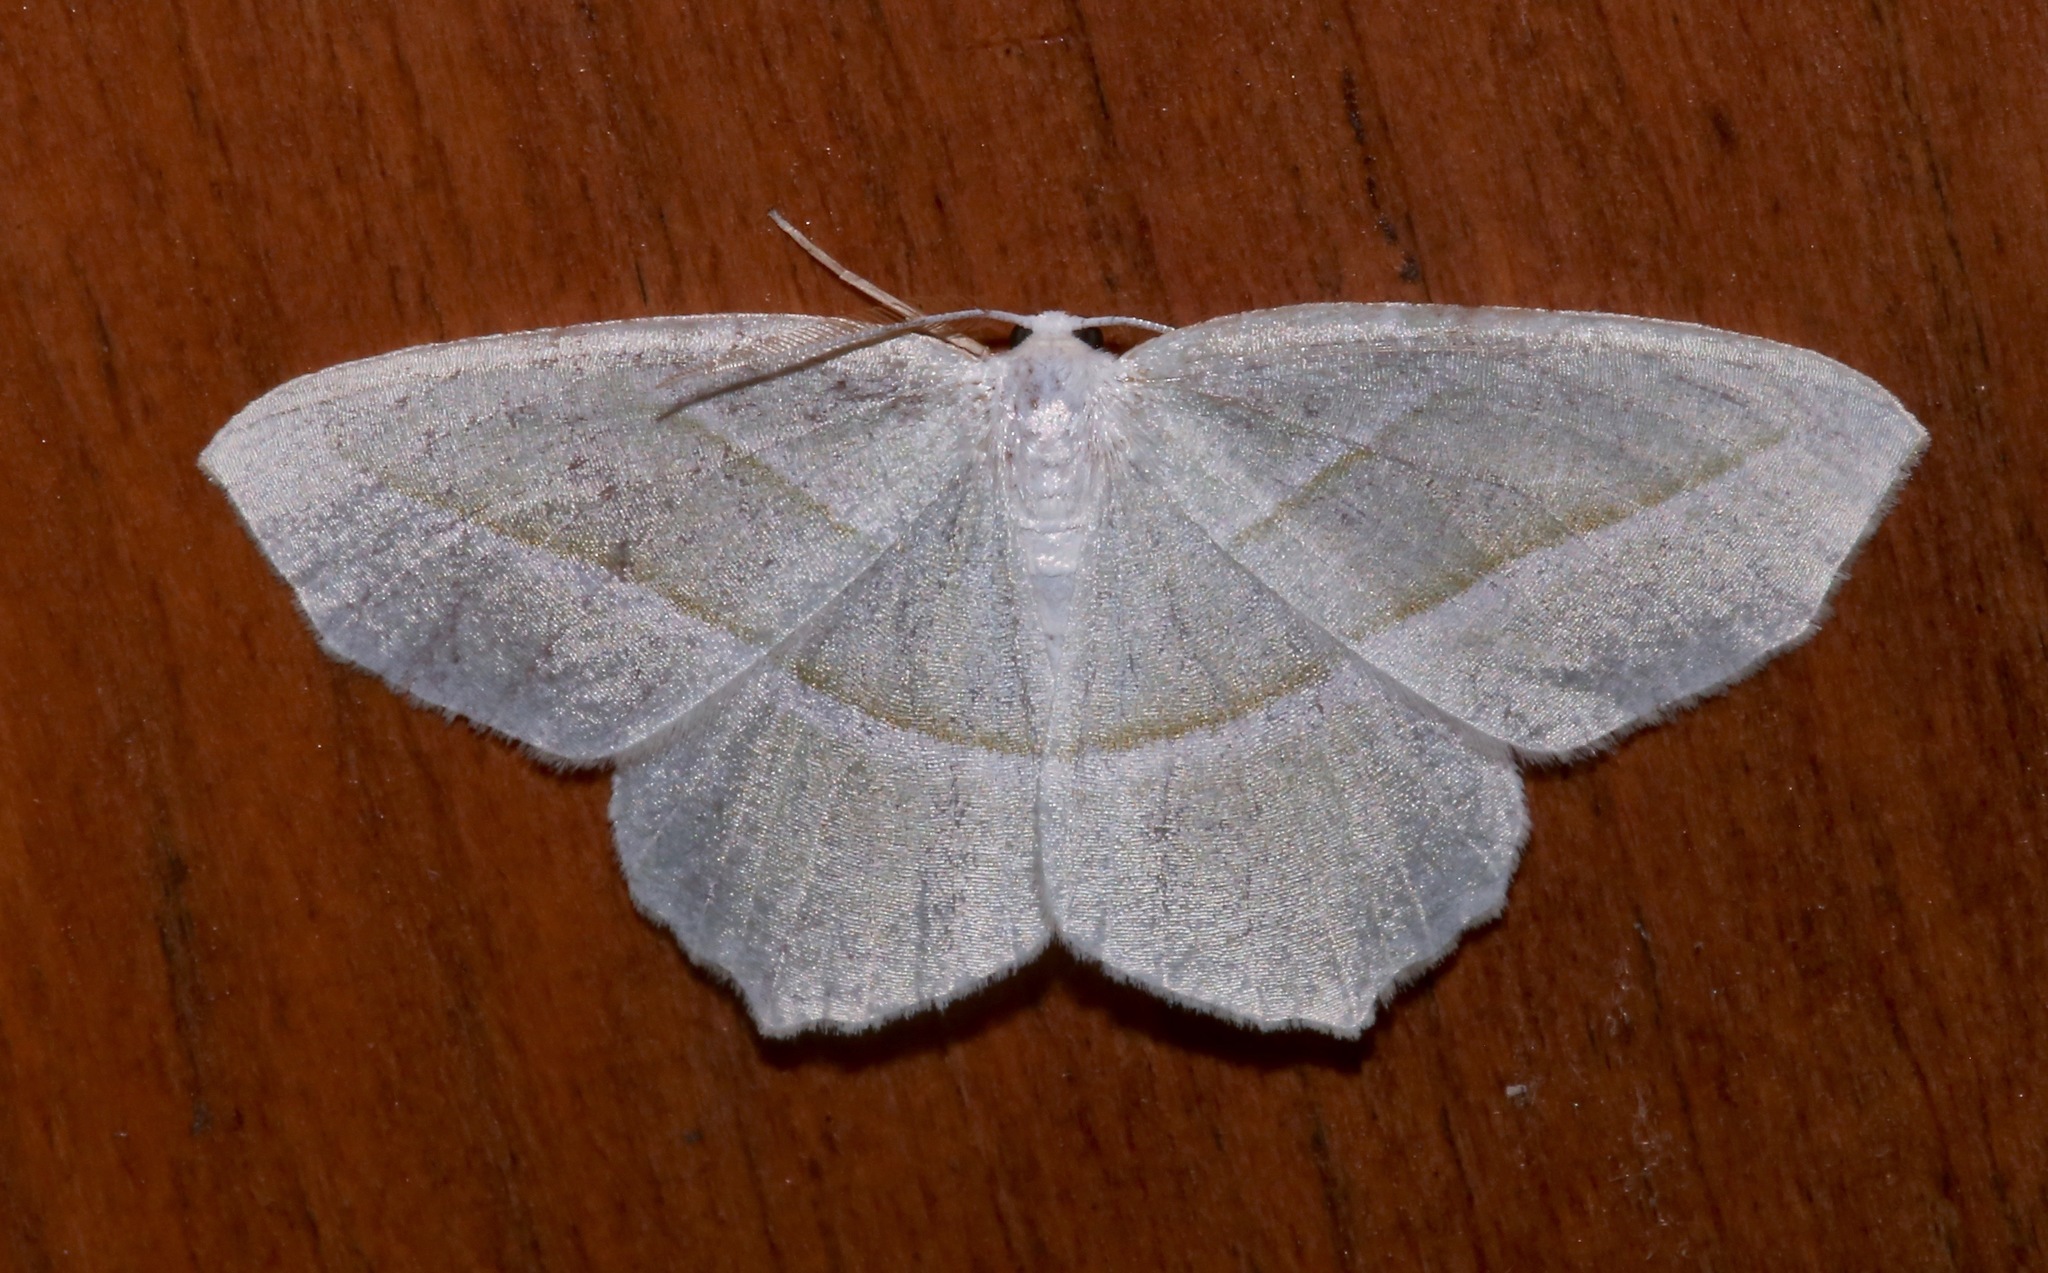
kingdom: Animalia
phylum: Arthropoda
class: Insecta
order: Lepidoptera
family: Geometridae
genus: Campaea
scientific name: Campaea perlata
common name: Fringed looper
